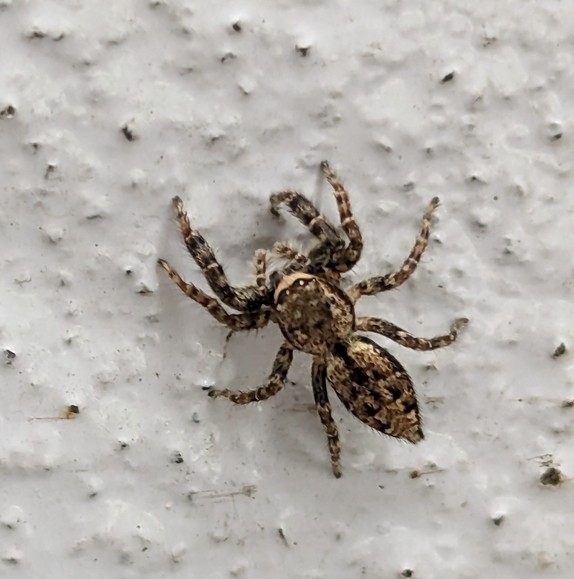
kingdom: Animalia
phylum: Arthropoda
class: Arachnida
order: Araneae
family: Salticidae
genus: Marpissa
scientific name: Marpissa muscosa
